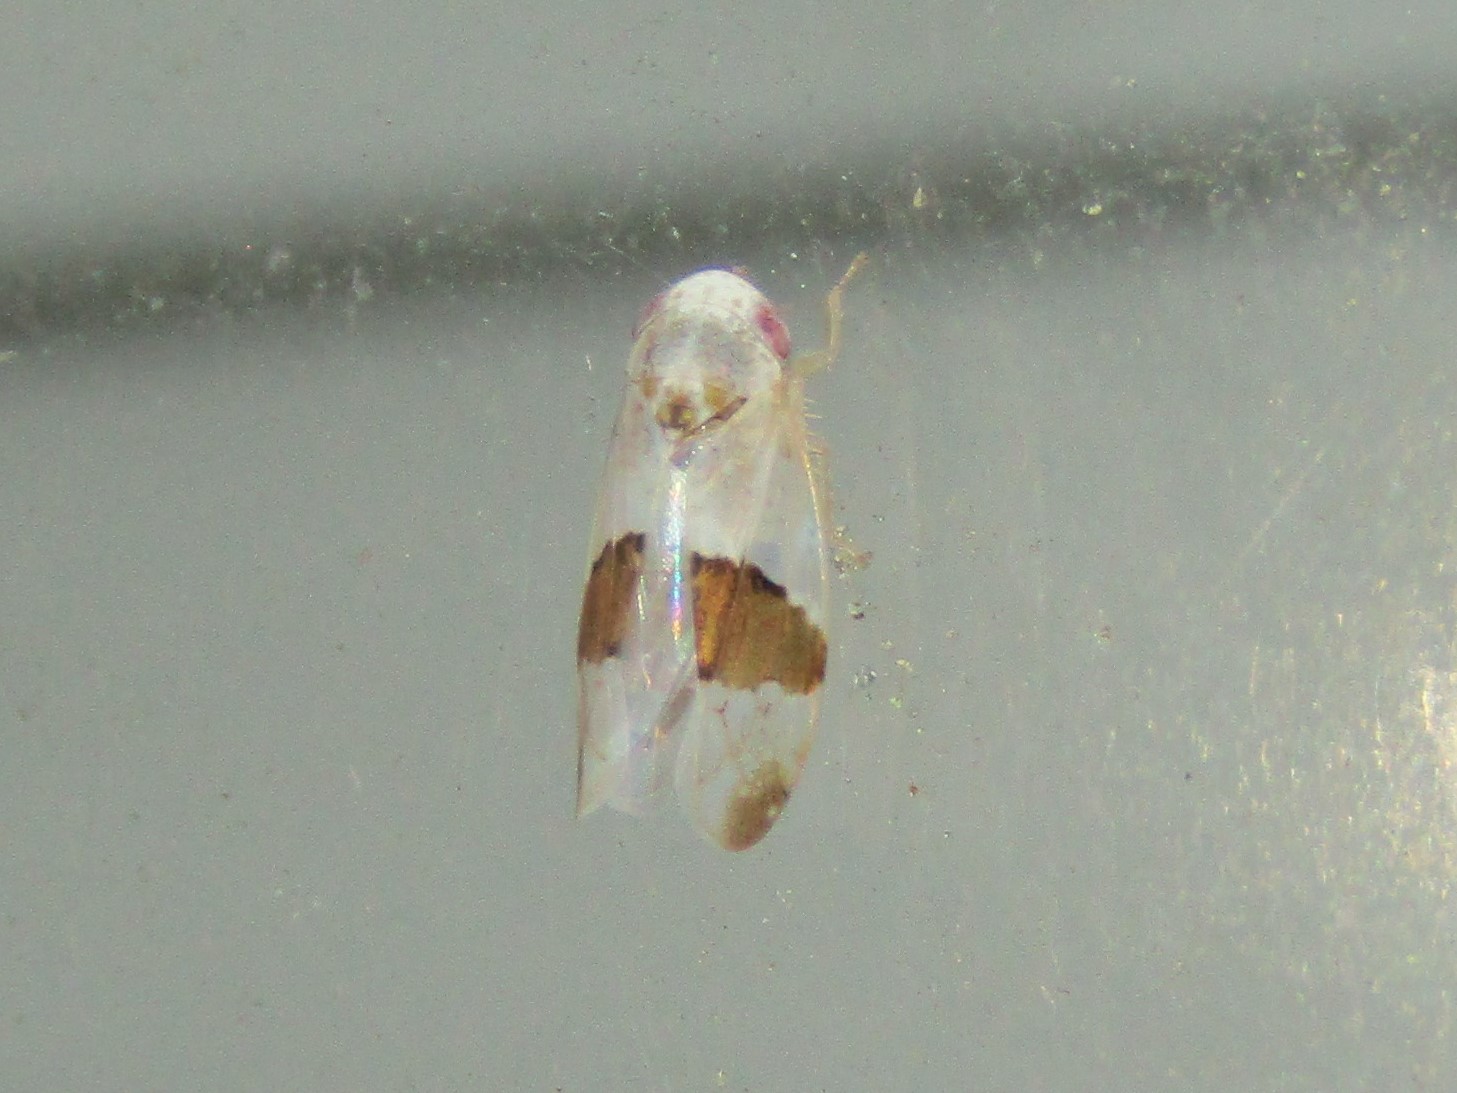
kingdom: Animalia
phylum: Arthropoda
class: Insecta
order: Hemiptera
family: Cicadellidae
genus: Norvellina
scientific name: Norvellina seminuda
